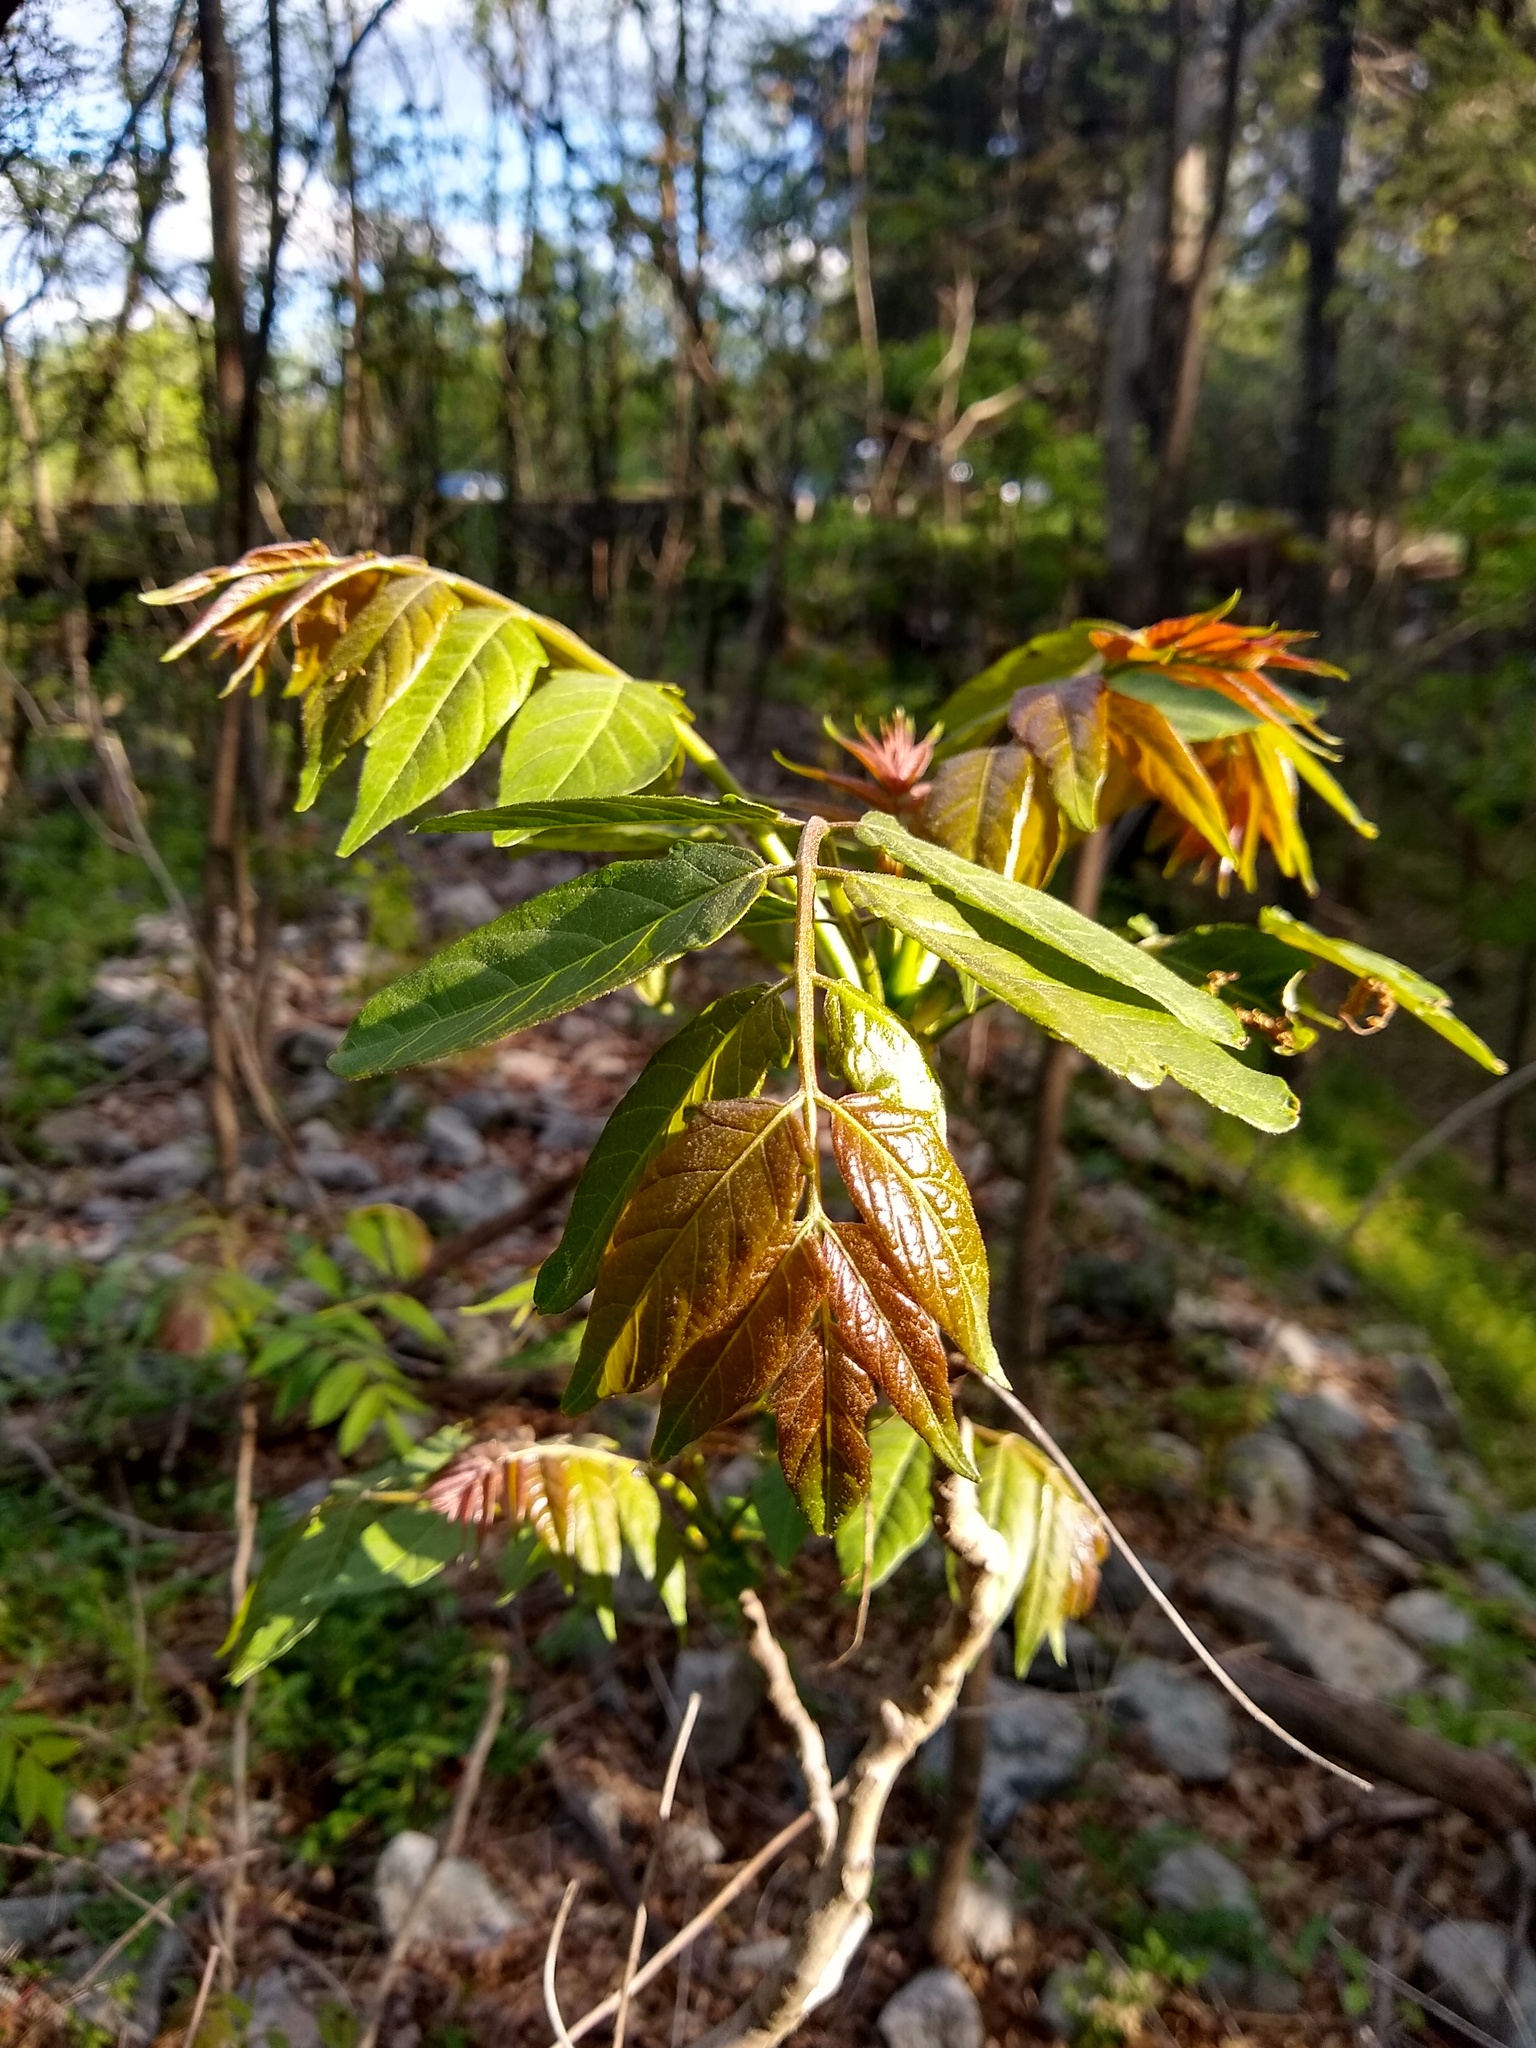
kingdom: Plantae
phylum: Tracheophyta
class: Magnoliopsida
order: Sapindales
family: Simaroubaceae
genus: Ailanthus
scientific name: Ailanthus altissima
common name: Tree-of-heaven
